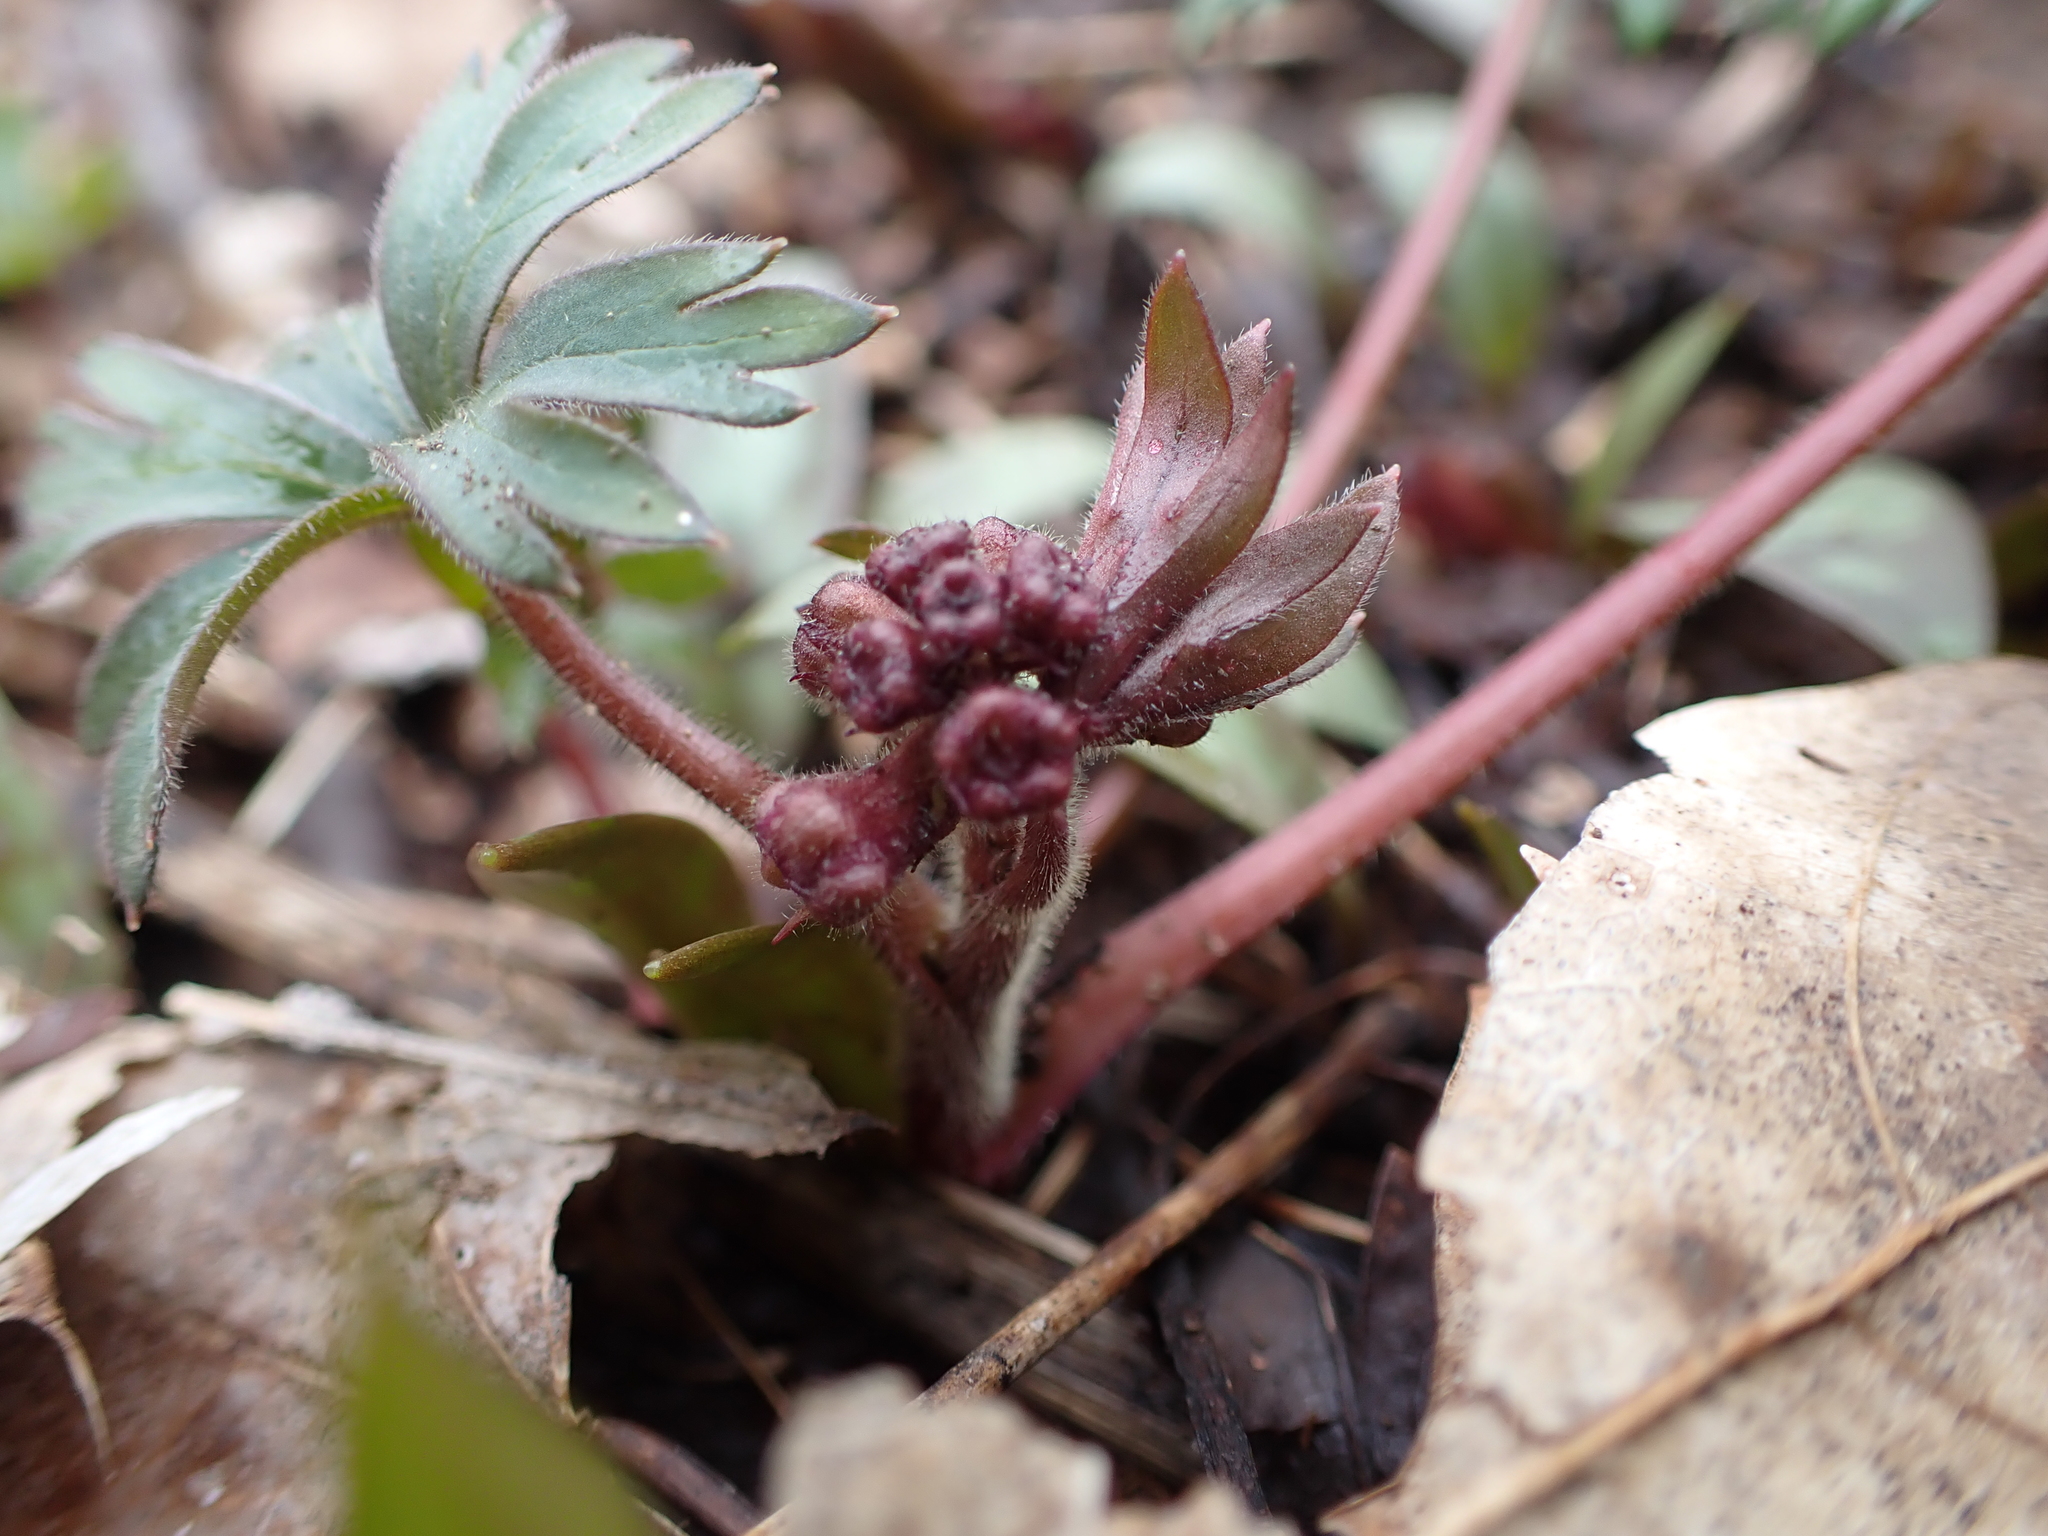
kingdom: Plantae
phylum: Tracheophyta
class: Magnoliopsida
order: Ranunculales
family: Ranunculaceae
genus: Delphinium
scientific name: Delphinium tricorne
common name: Dwarf larkspur
